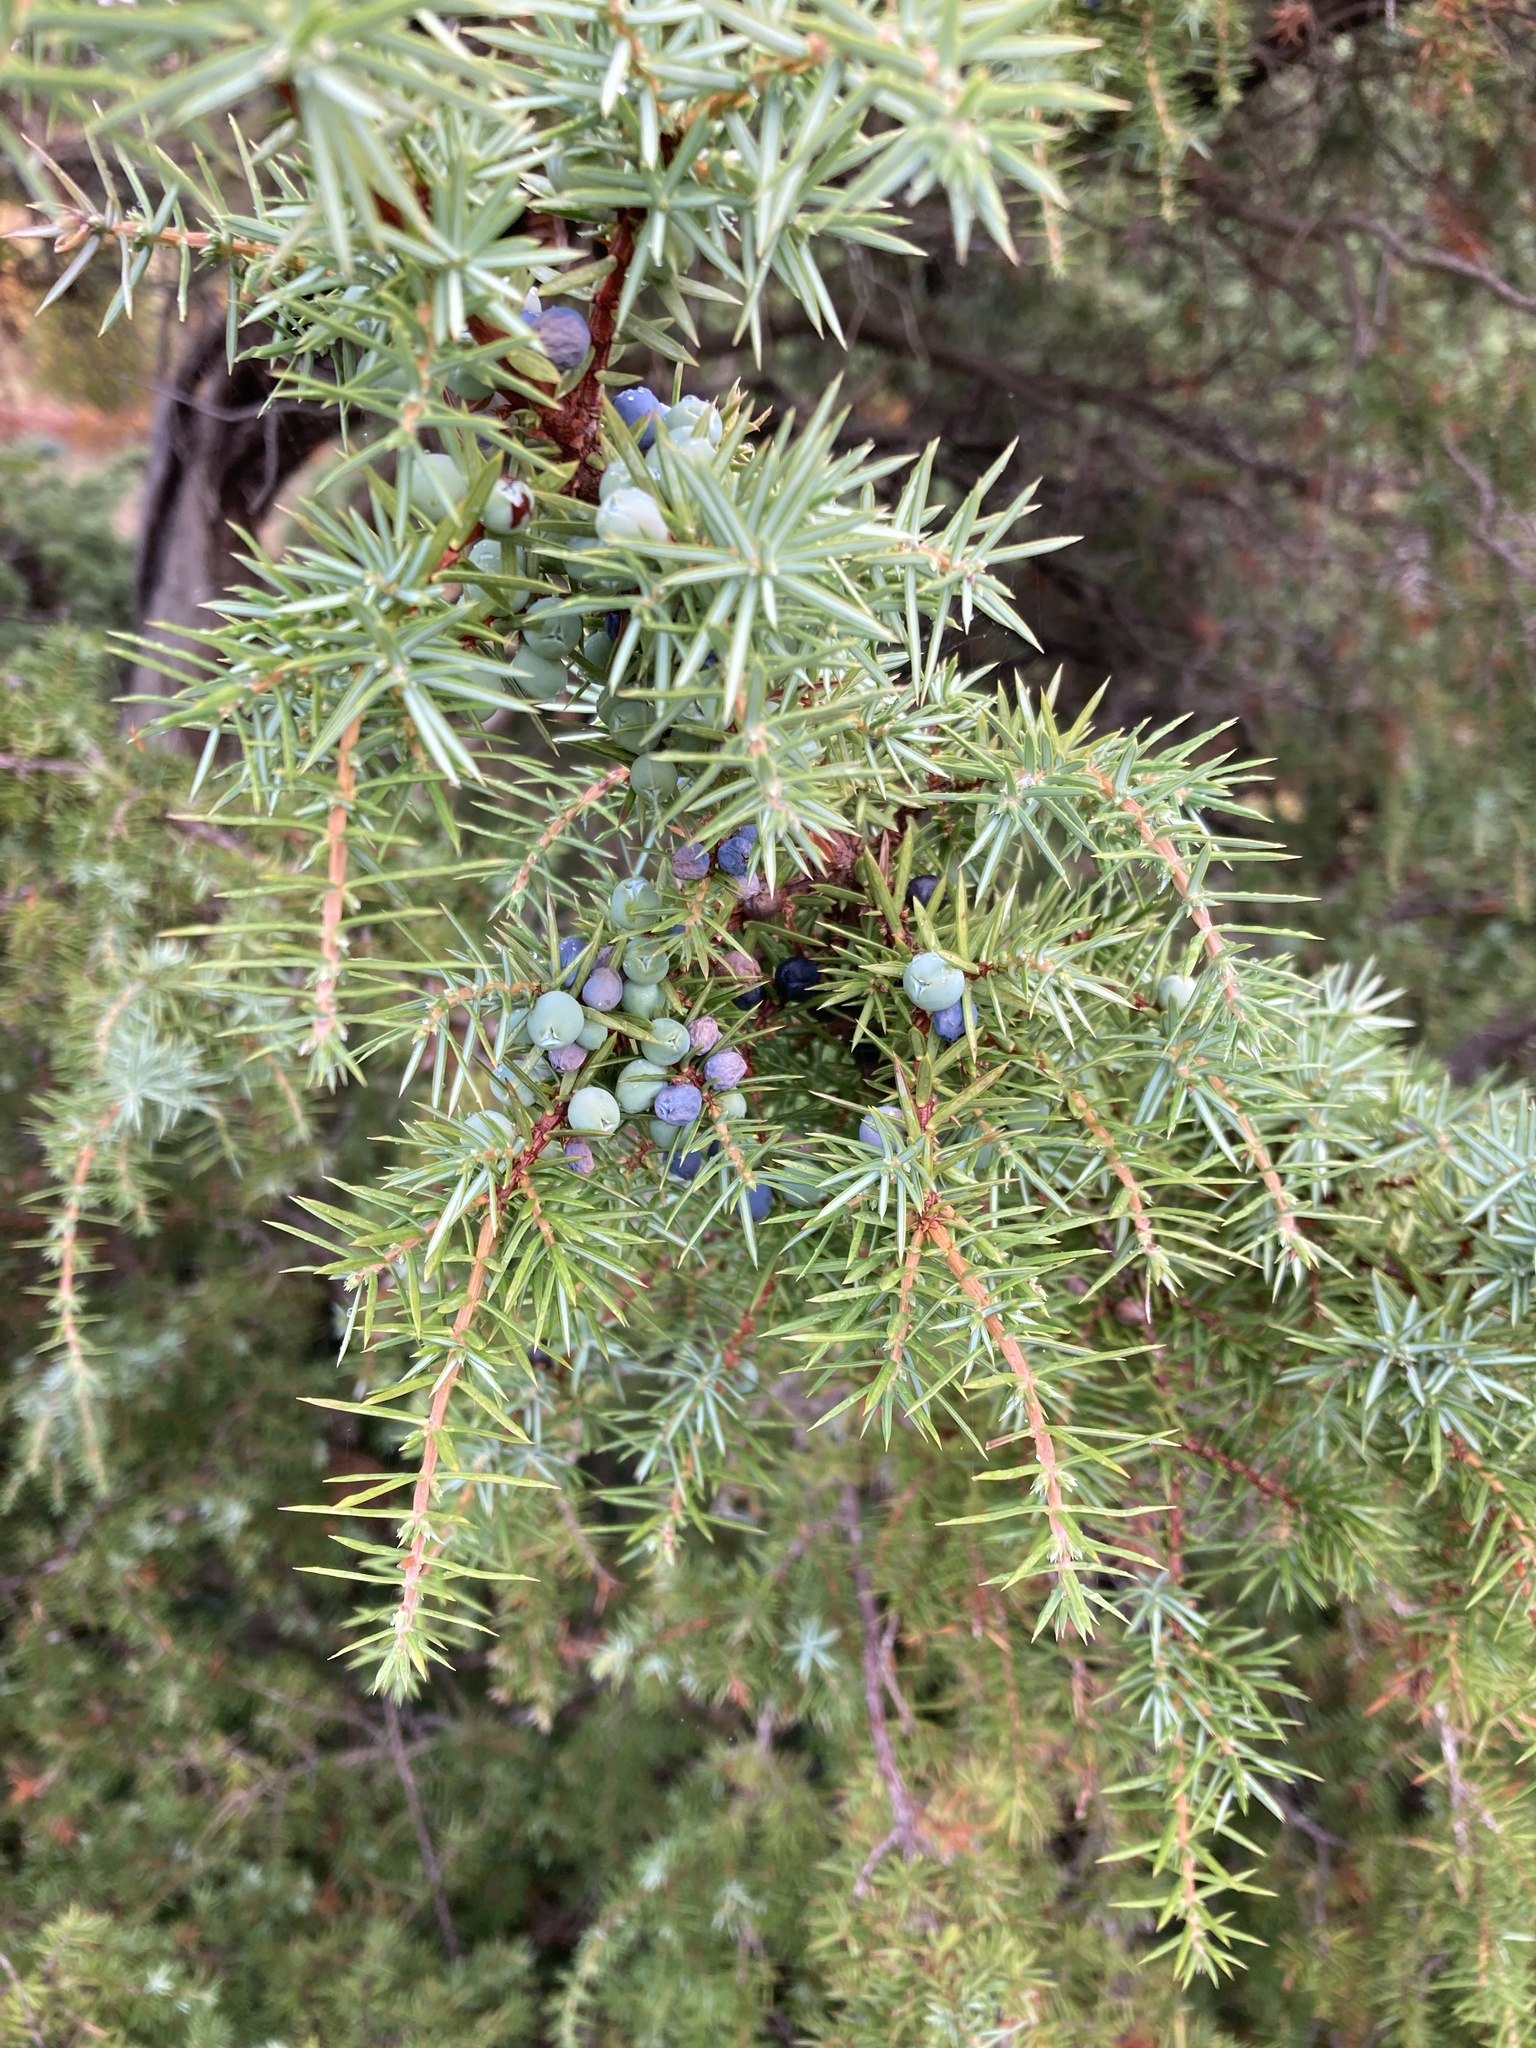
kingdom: Plantae
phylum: Tracheophyta
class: Pinopsida
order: Pinales
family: Cupressaceae
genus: Juniperus
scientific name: Juniperus communis
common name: Common juniper
